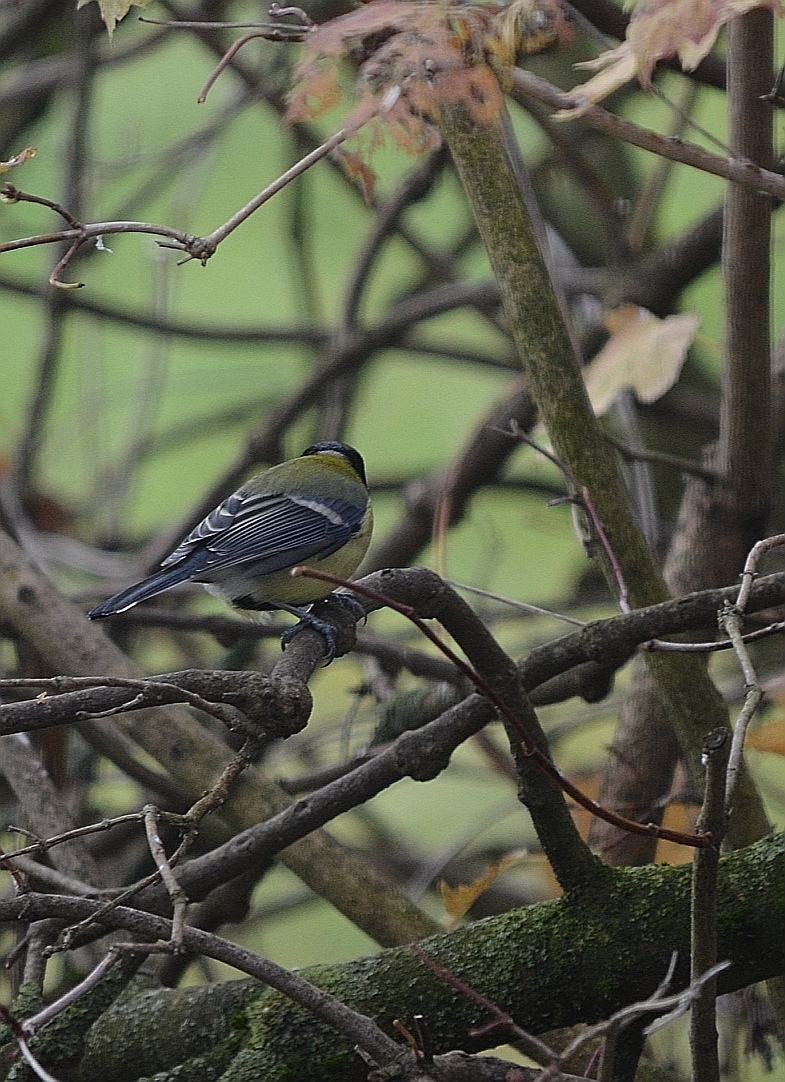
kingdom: Animalia
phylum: Chordata
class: Aves
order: Passeriformes
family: Paridae
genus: Parus
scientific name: Parus major
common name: Great tit
